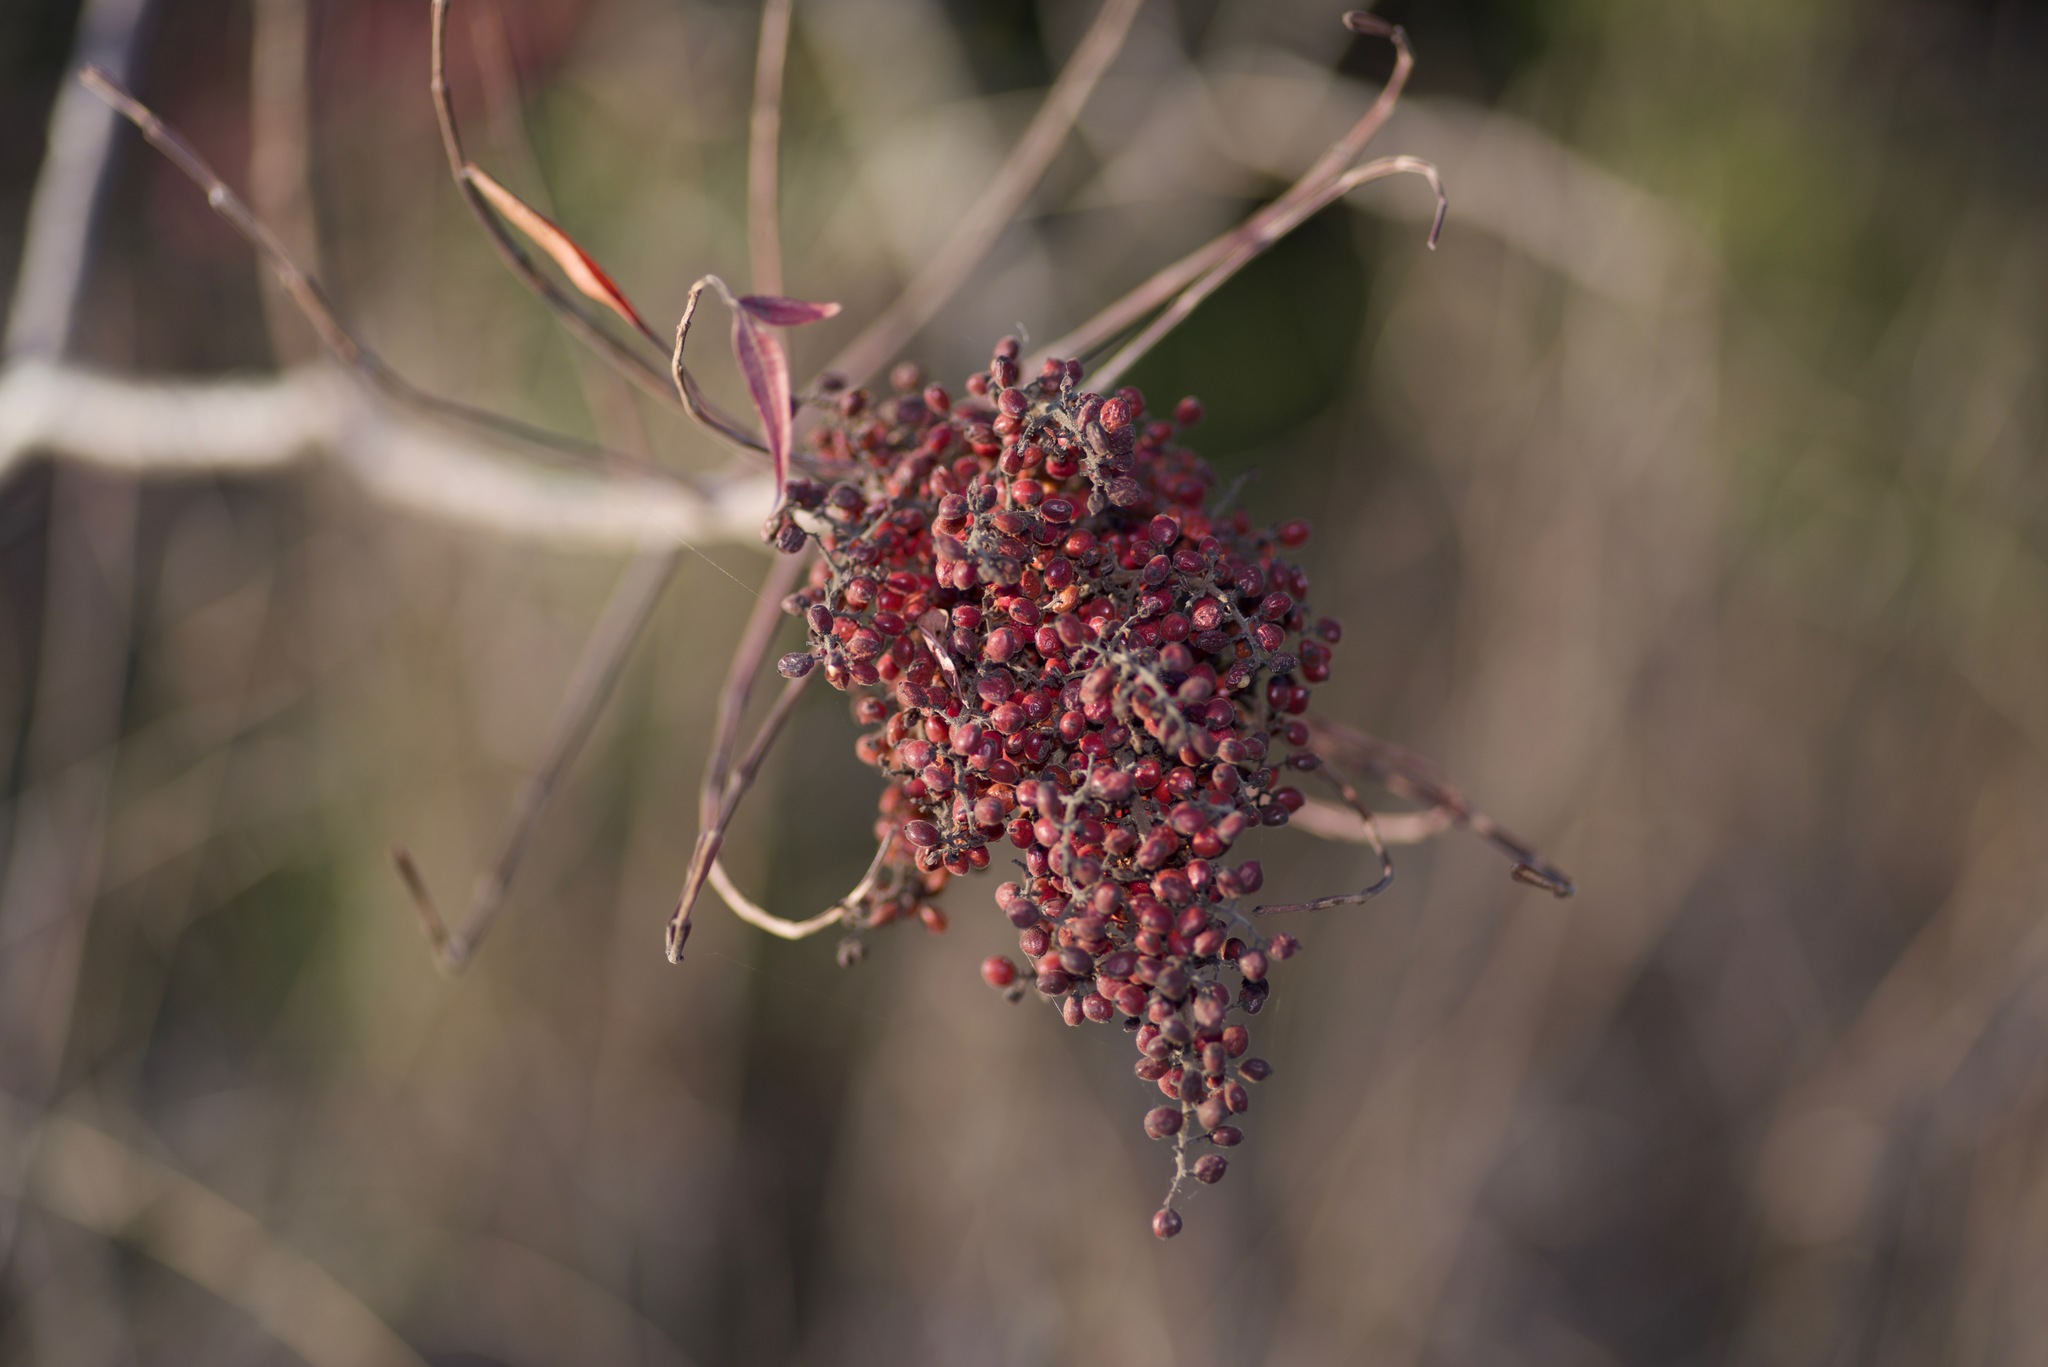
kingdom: Plantae
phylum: Tracheophyta
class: Magnoliopsida
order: Sapindales
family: Anacardiaceae
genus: Rhus
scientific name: Rhus lanceolata
